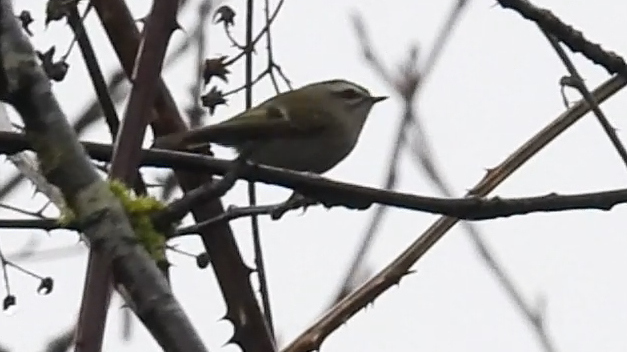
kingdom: Animalia
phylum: Chordata
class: Aves
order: Passeriformes
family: Regulidae
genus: Regulus
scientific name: Regulus satrapa
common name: Golden-crowned kinglet
